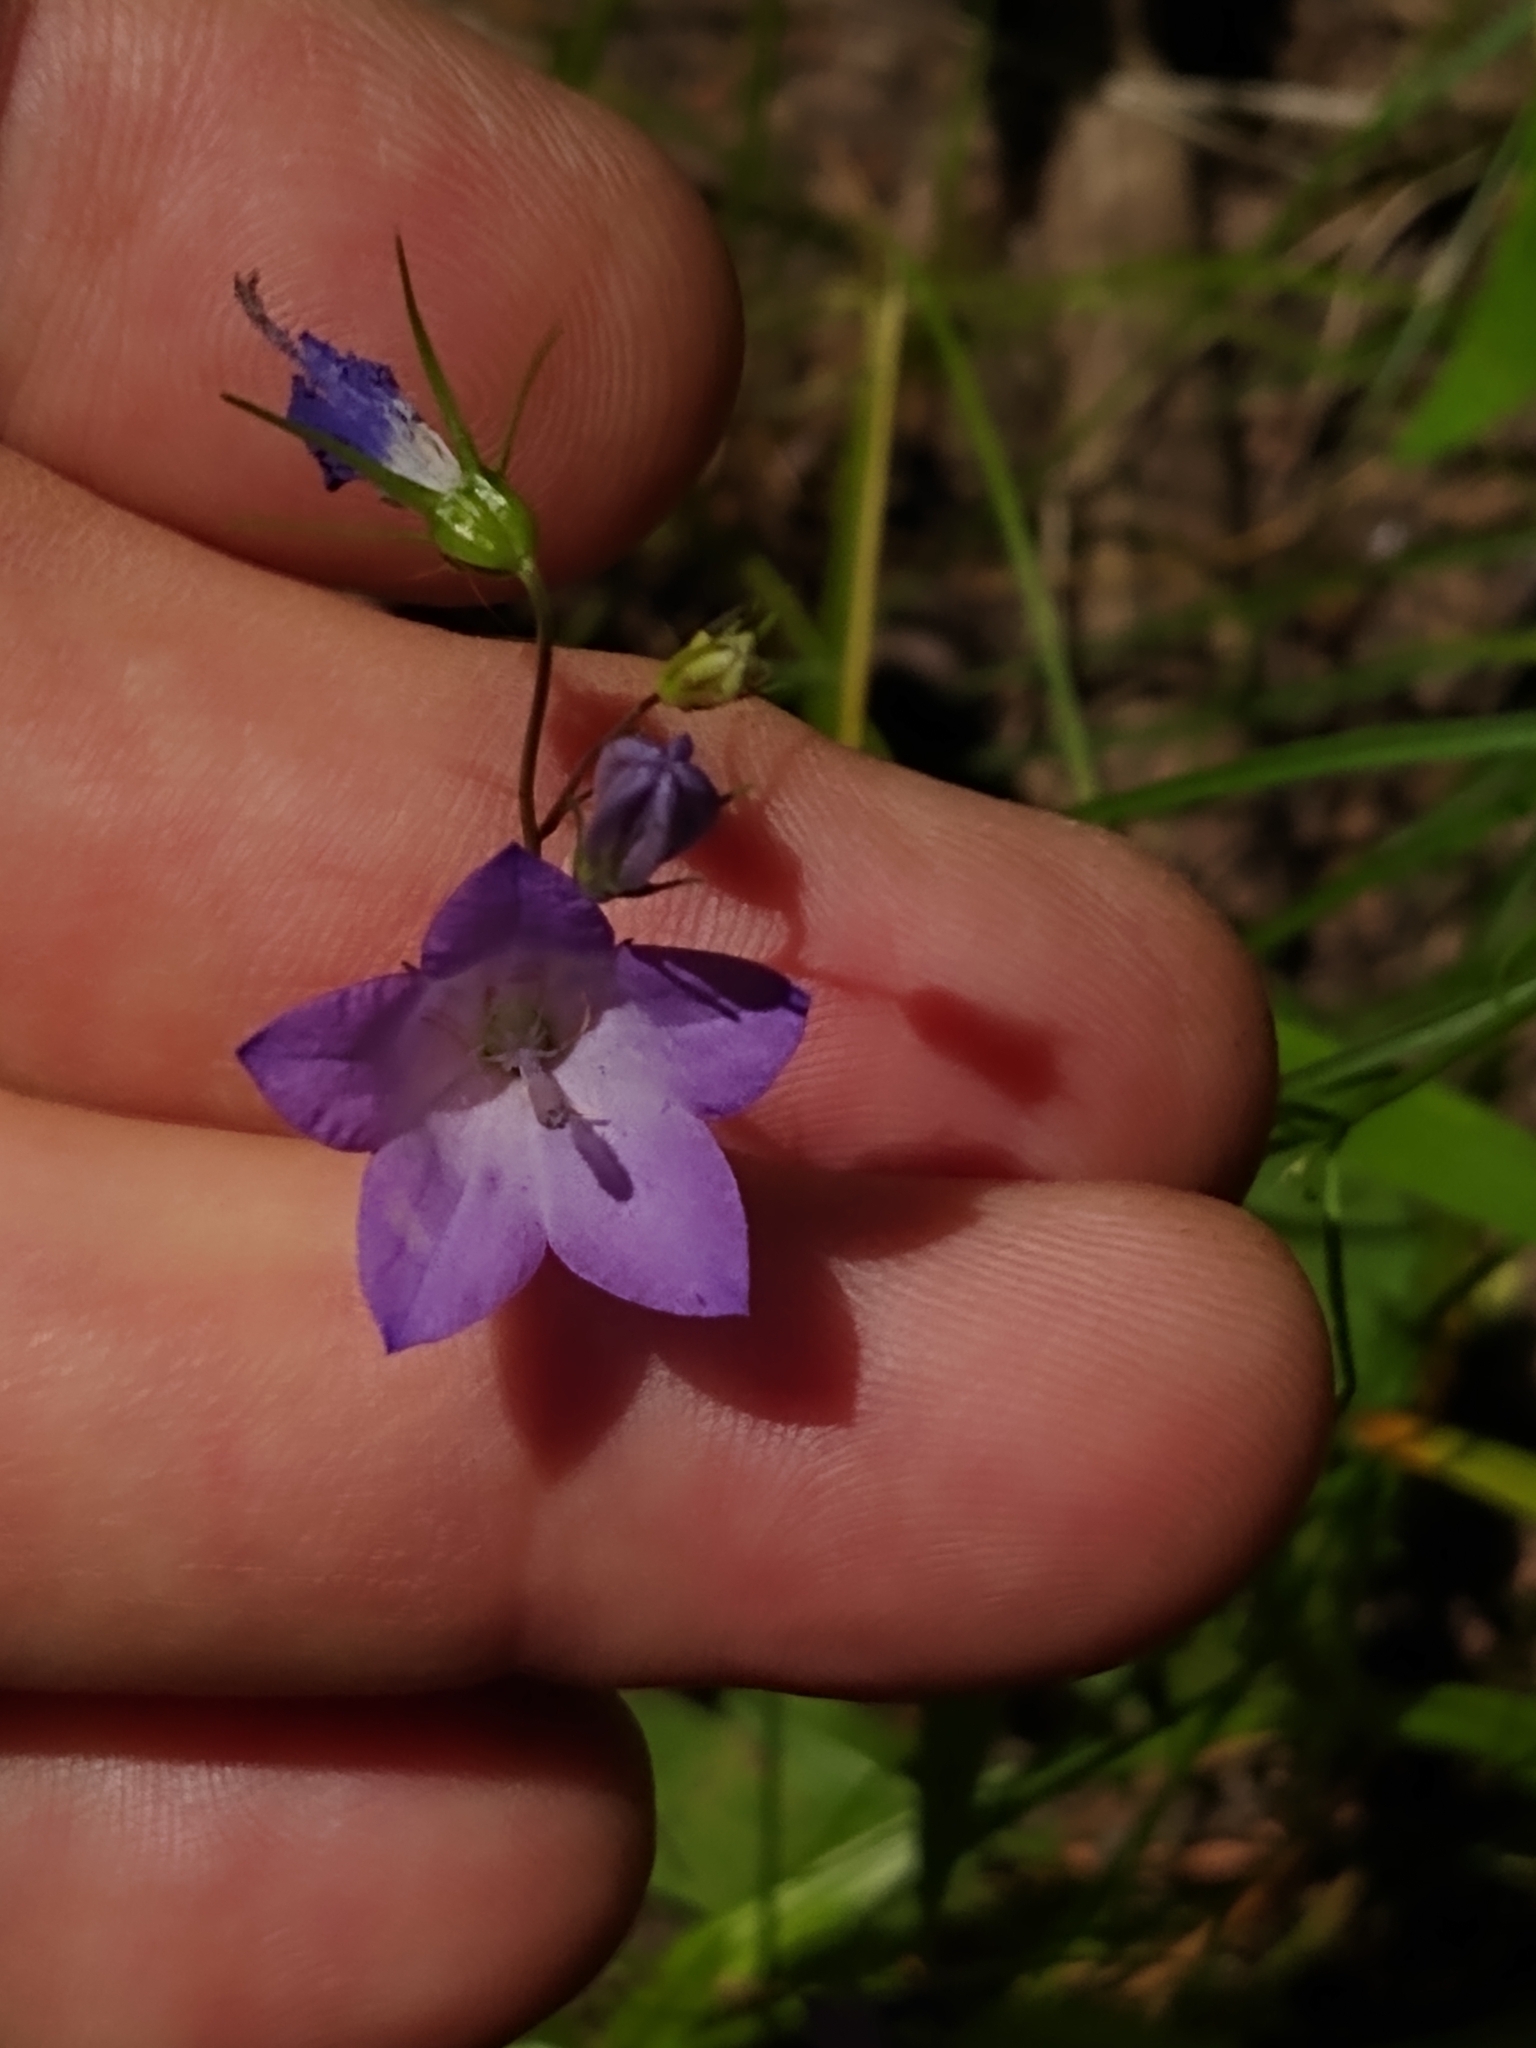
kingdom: Plantae
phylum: Tracheophyta
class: Magnoliopsida
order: Asterales
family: Campanulaceae
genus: Campanula
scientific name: Campanula intercedens
